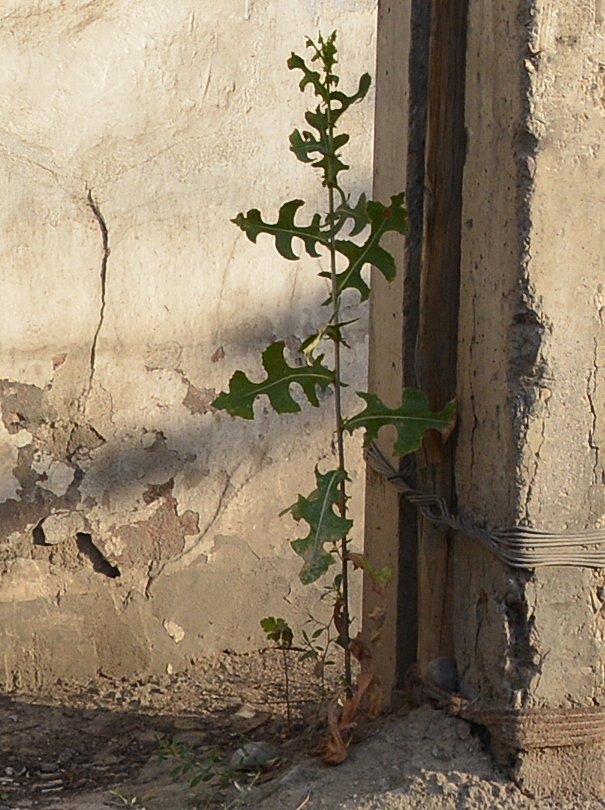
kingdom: Plantae
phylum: Tracheophyta
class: Magnoliopsida
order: Asterales
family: Asteraceae
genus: Lactuca
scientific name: Lactuca serriola
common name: Prickly lettuce
